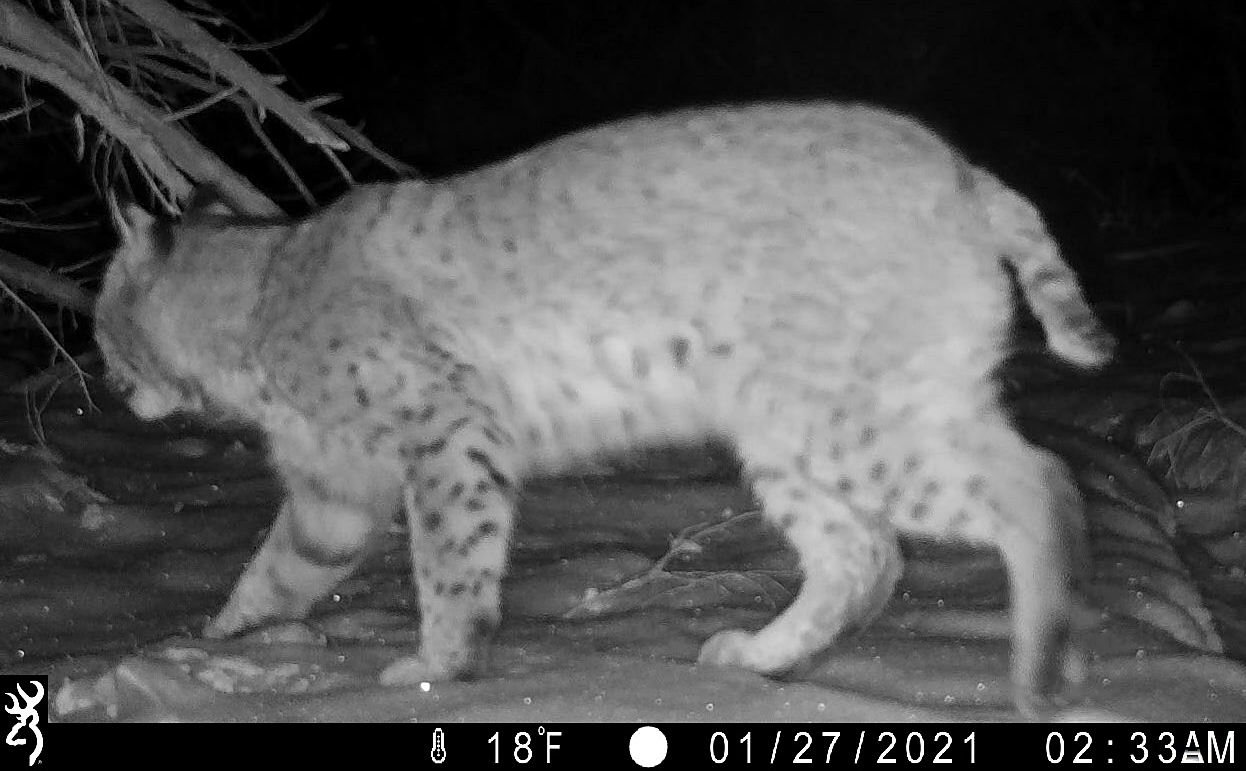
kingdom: Animalia
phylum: Chordata
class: Mammalia
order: Carnivora
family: Felidae
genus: Lynx
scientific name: Lynx rufus
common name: Bobcat
